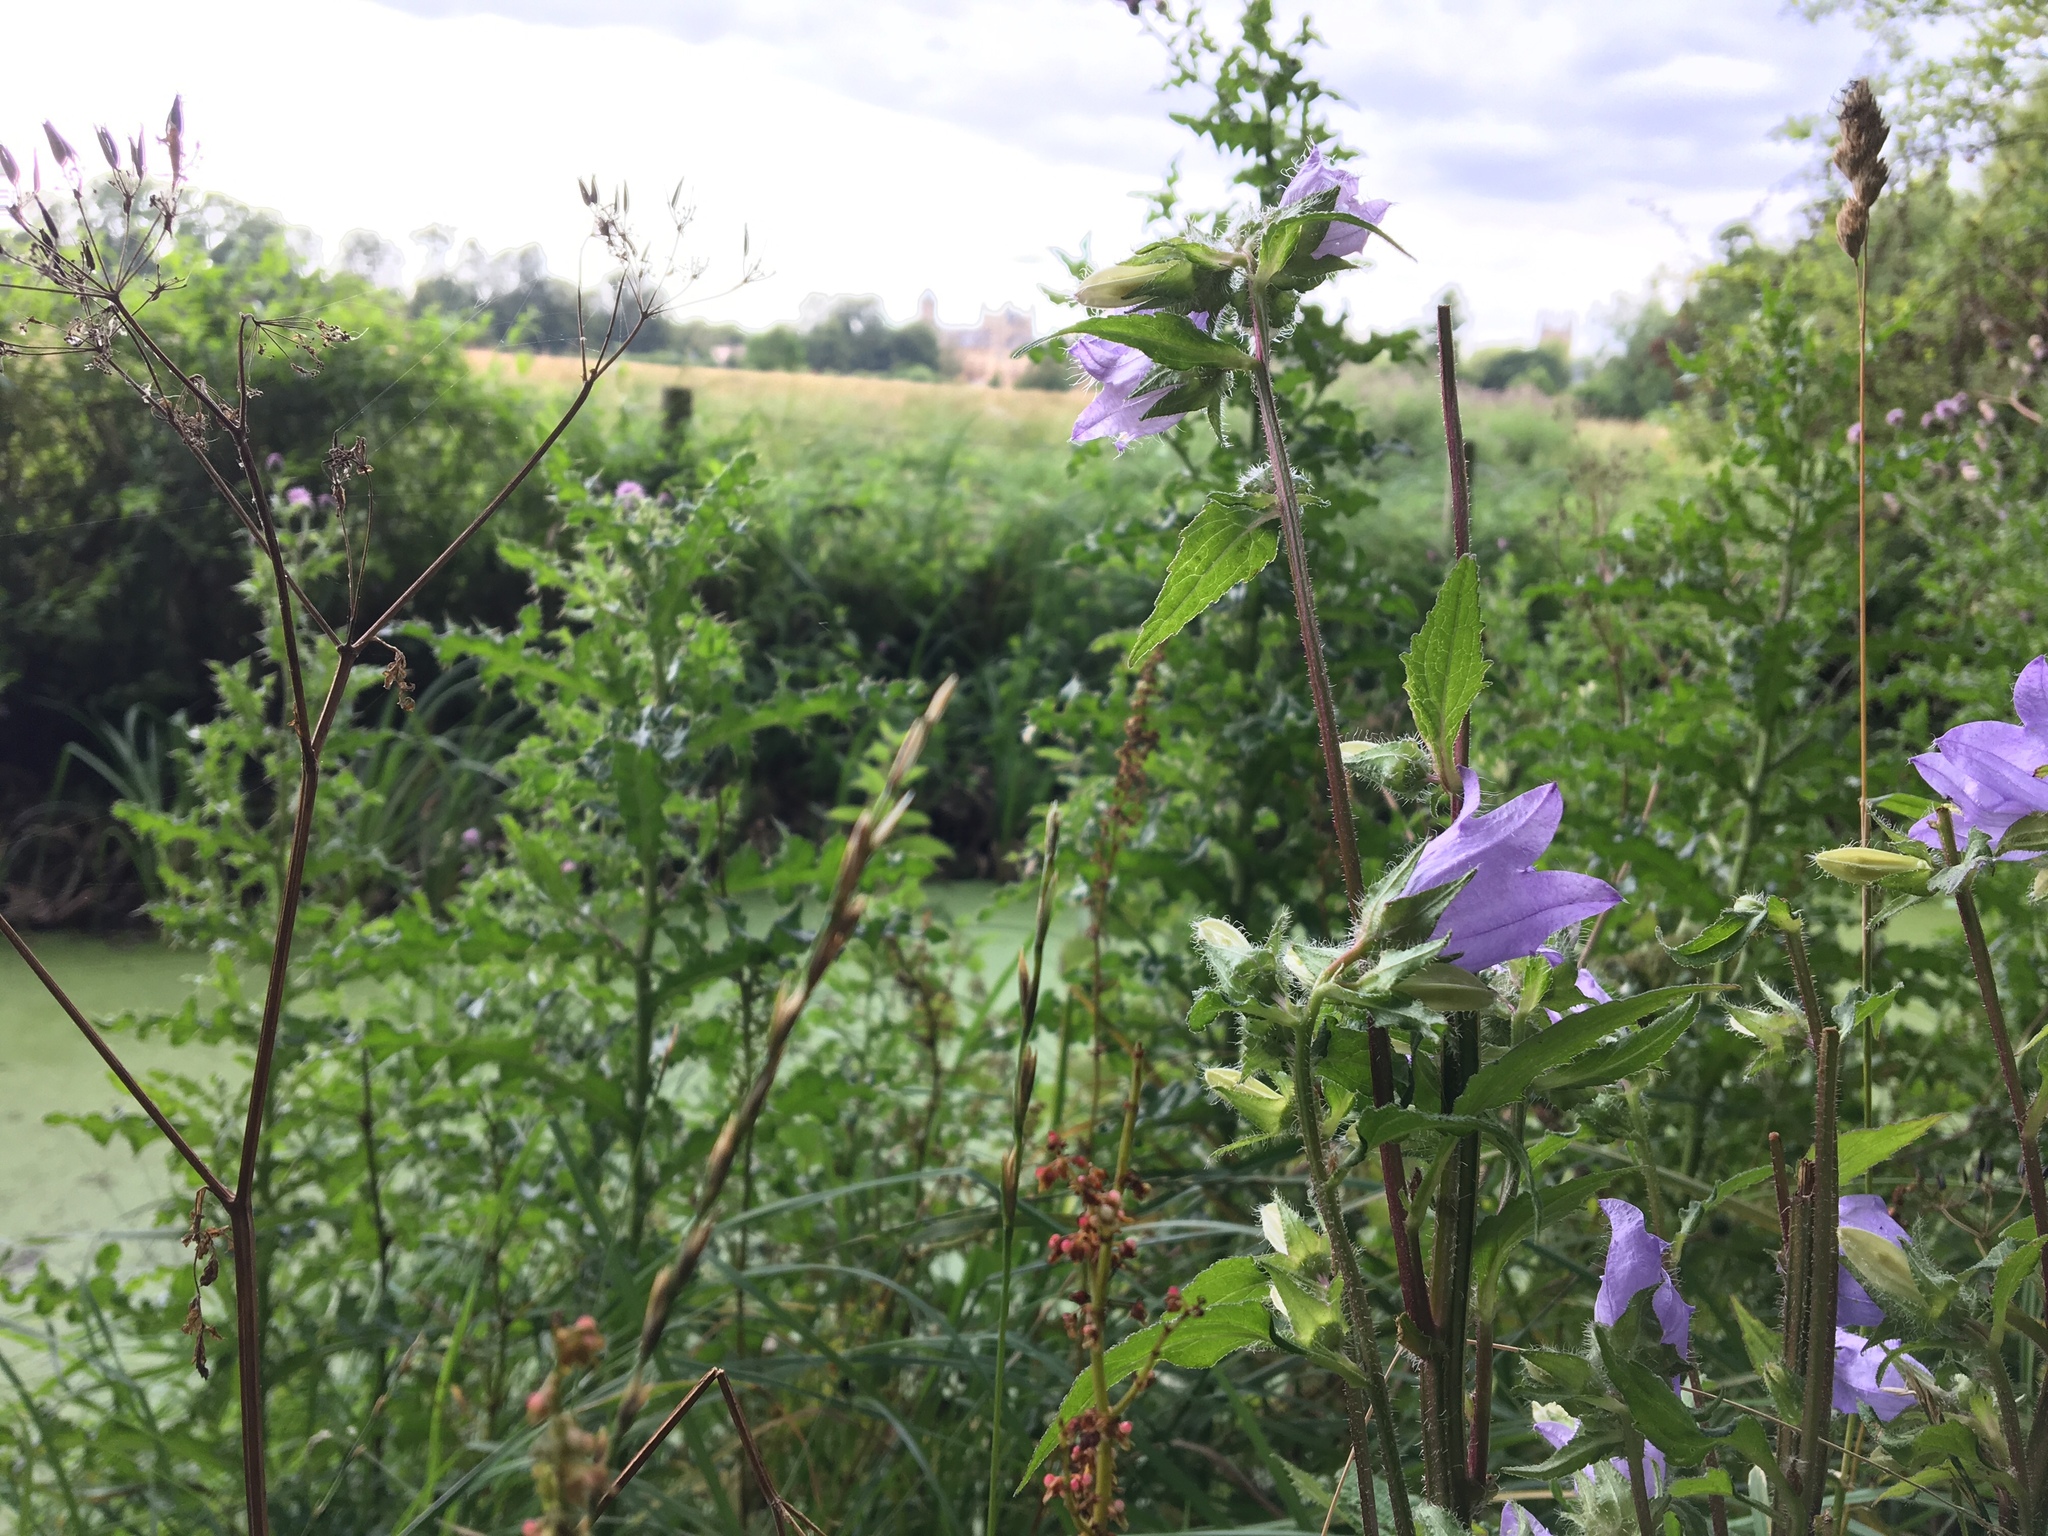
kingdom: Plantae
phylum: Tracheophyta
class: Magnoliopsida
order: Asterales
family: Campanulaceae
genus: Campanula
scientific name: Campanula trachelium
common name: Nettle-leaved bellflower
